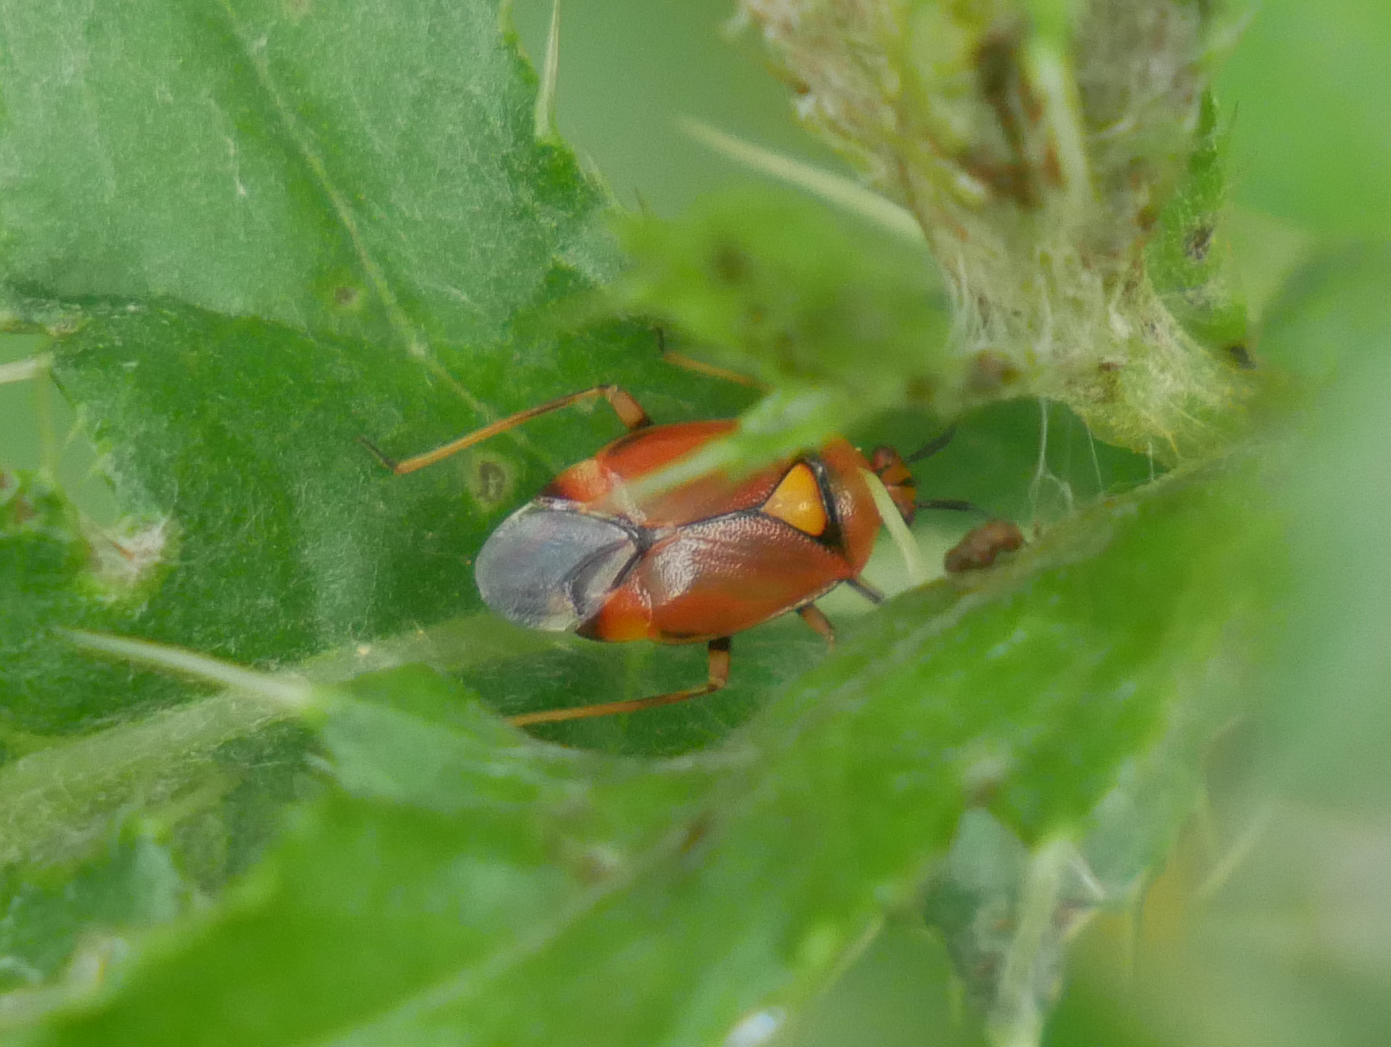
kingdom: Animalia
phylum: Arthropoda
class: Insecta
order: Hemiptera
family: Miridae
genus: Deraeocoris
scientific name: Deraeocoris ruber
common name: Plant bug
